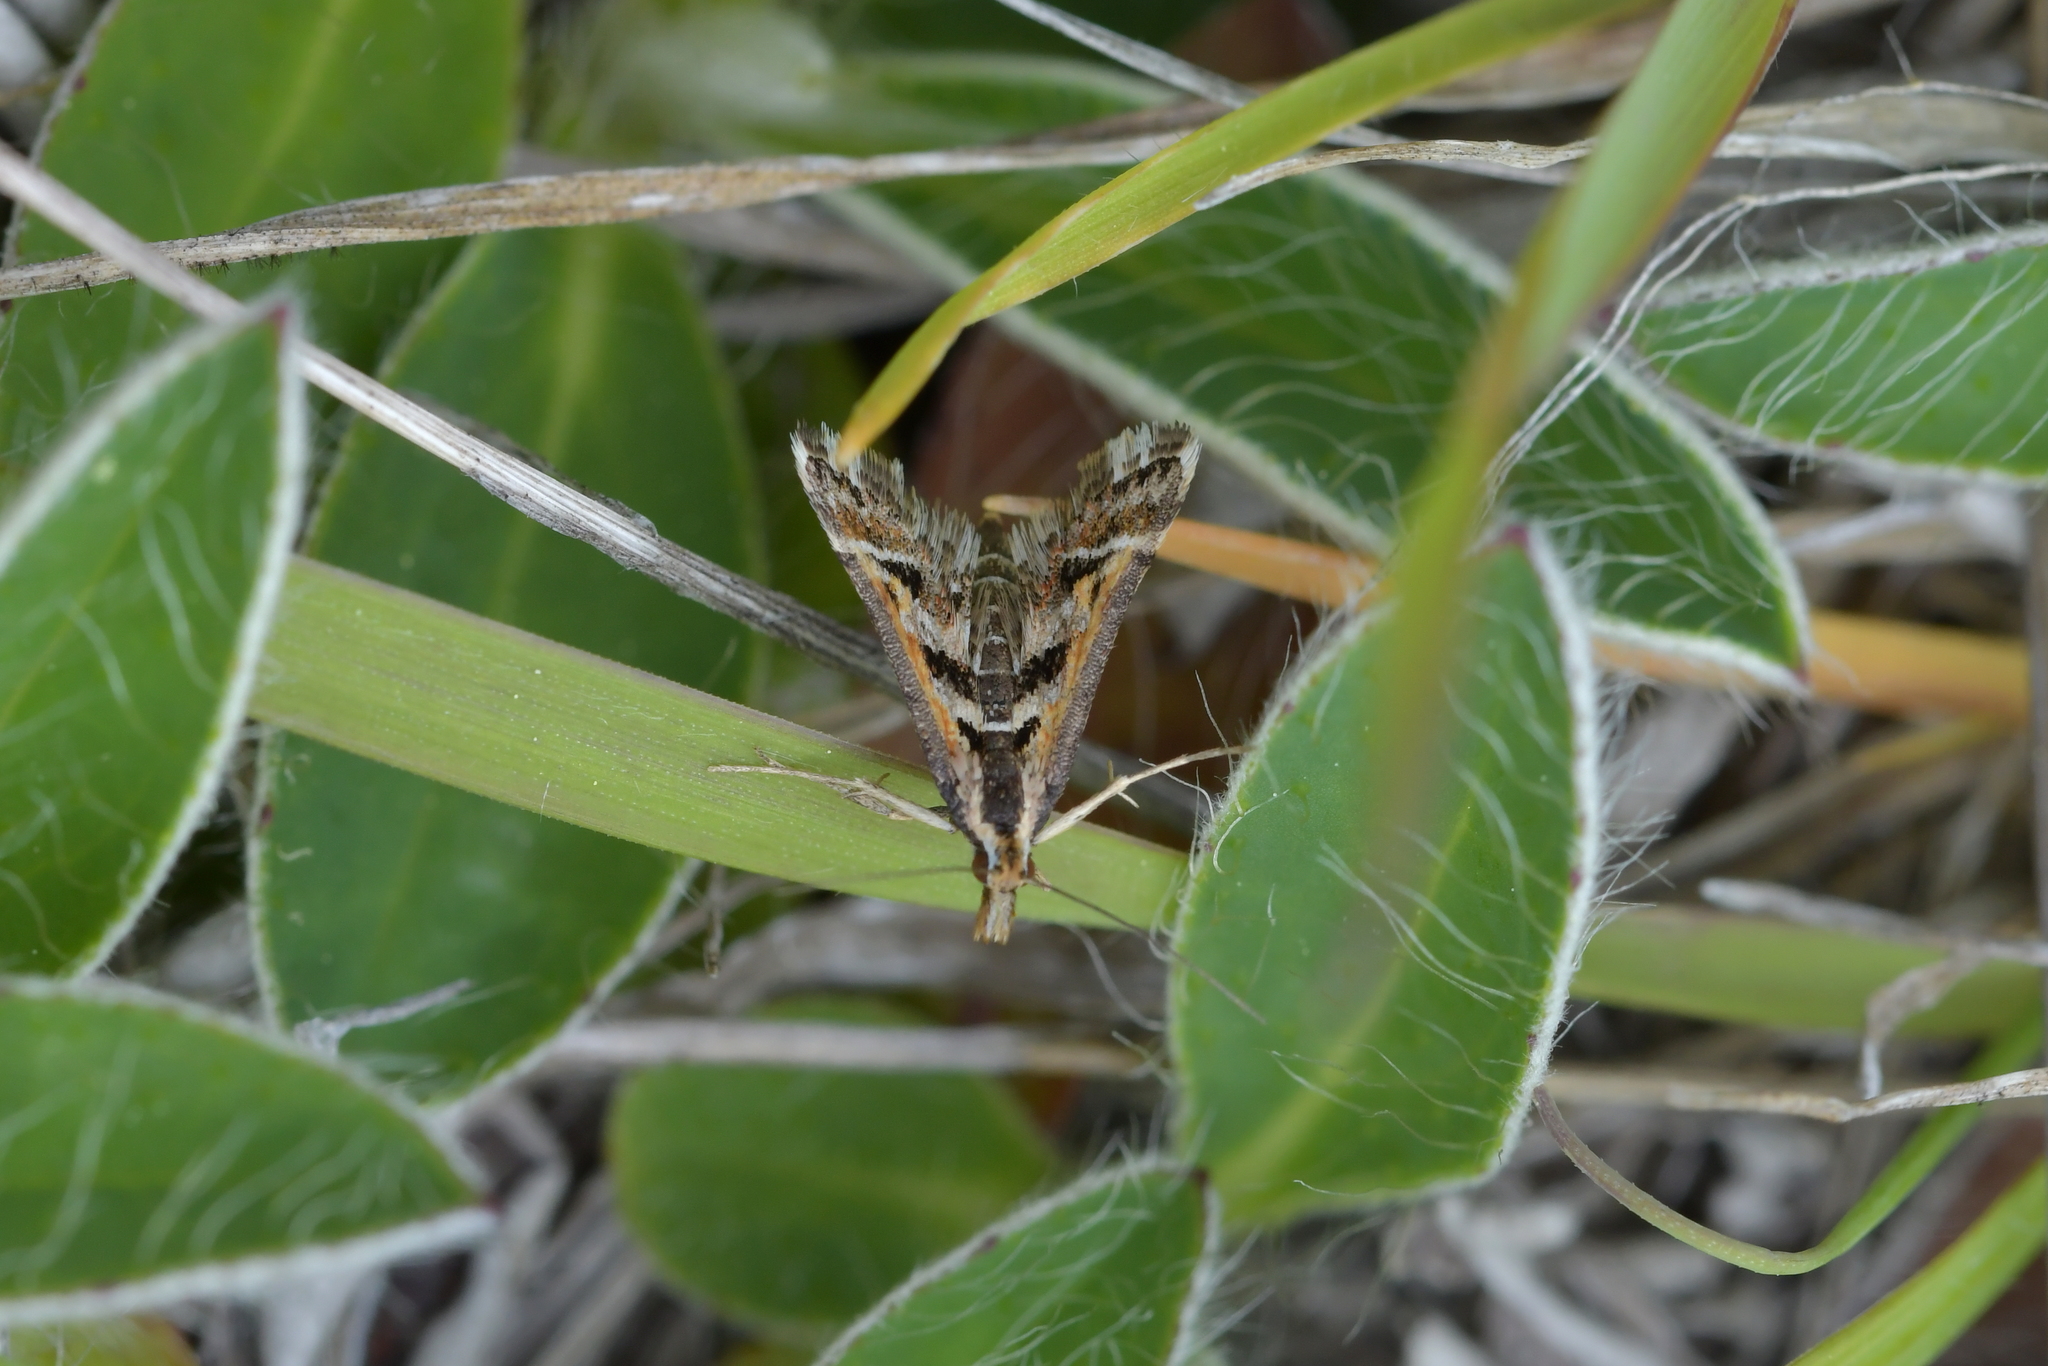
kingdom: Animalia
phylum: Arthropoda
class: Insecta
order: Lepidoptera
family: Crambidae
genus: Diasemia
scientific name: Diasemia grammalis
